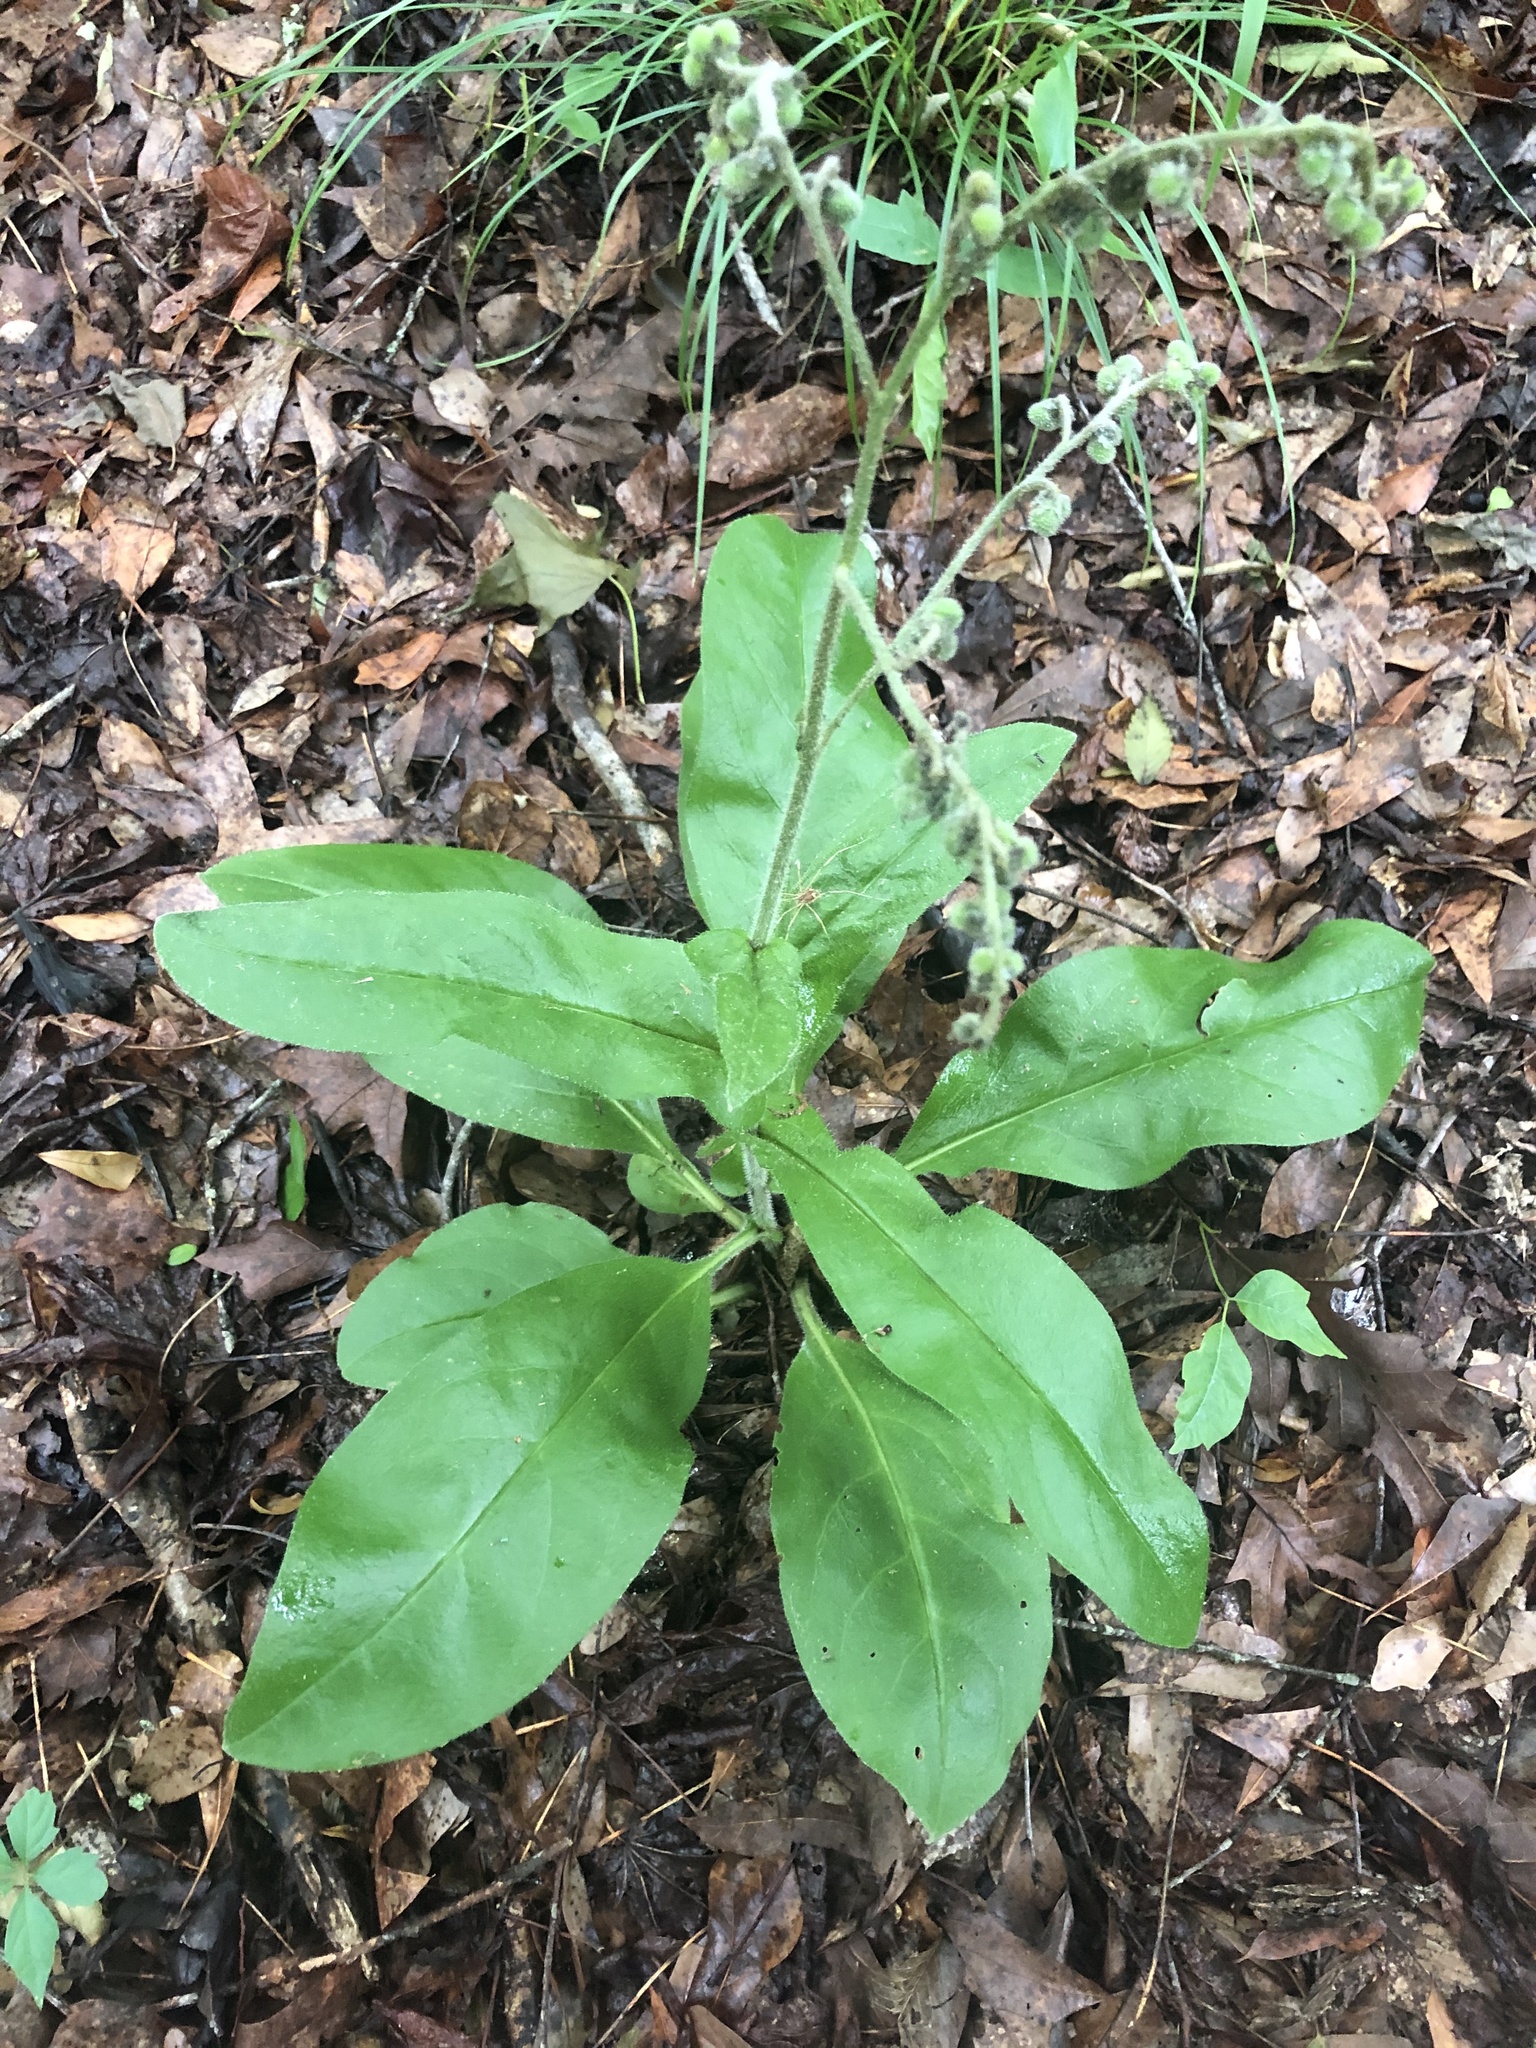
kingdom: Plantae
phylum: Tracheophyta
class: Magnoliopsida
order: Boraginales
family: Boraginaceae
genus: Andersonglossum
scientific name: Andersonglossum virginianum
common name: Wild comfrey
